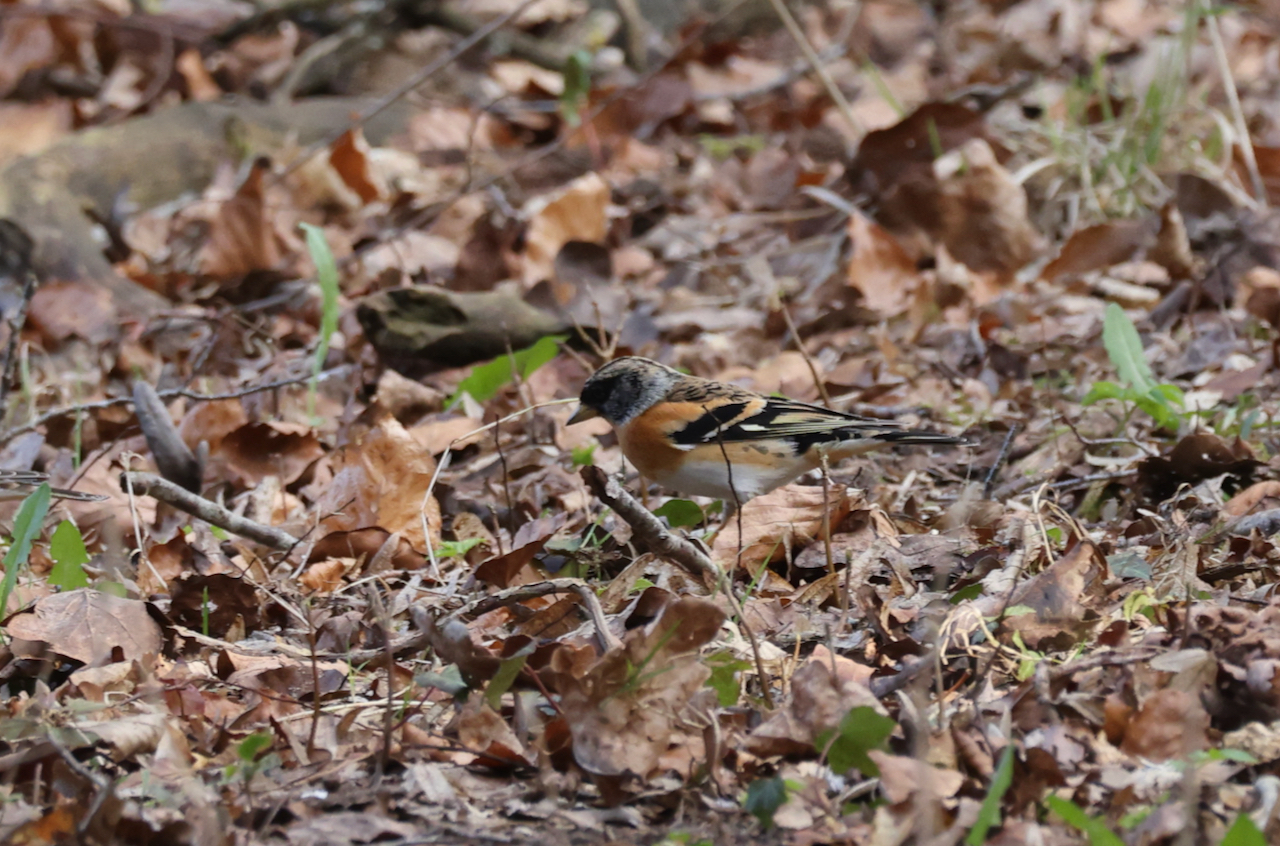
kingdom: Animalia
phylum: Chordata
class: Aves
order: Passeriformes
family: Fringillidae
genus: Fringilla
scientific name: Fringilla montifringilla
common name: Brambling
